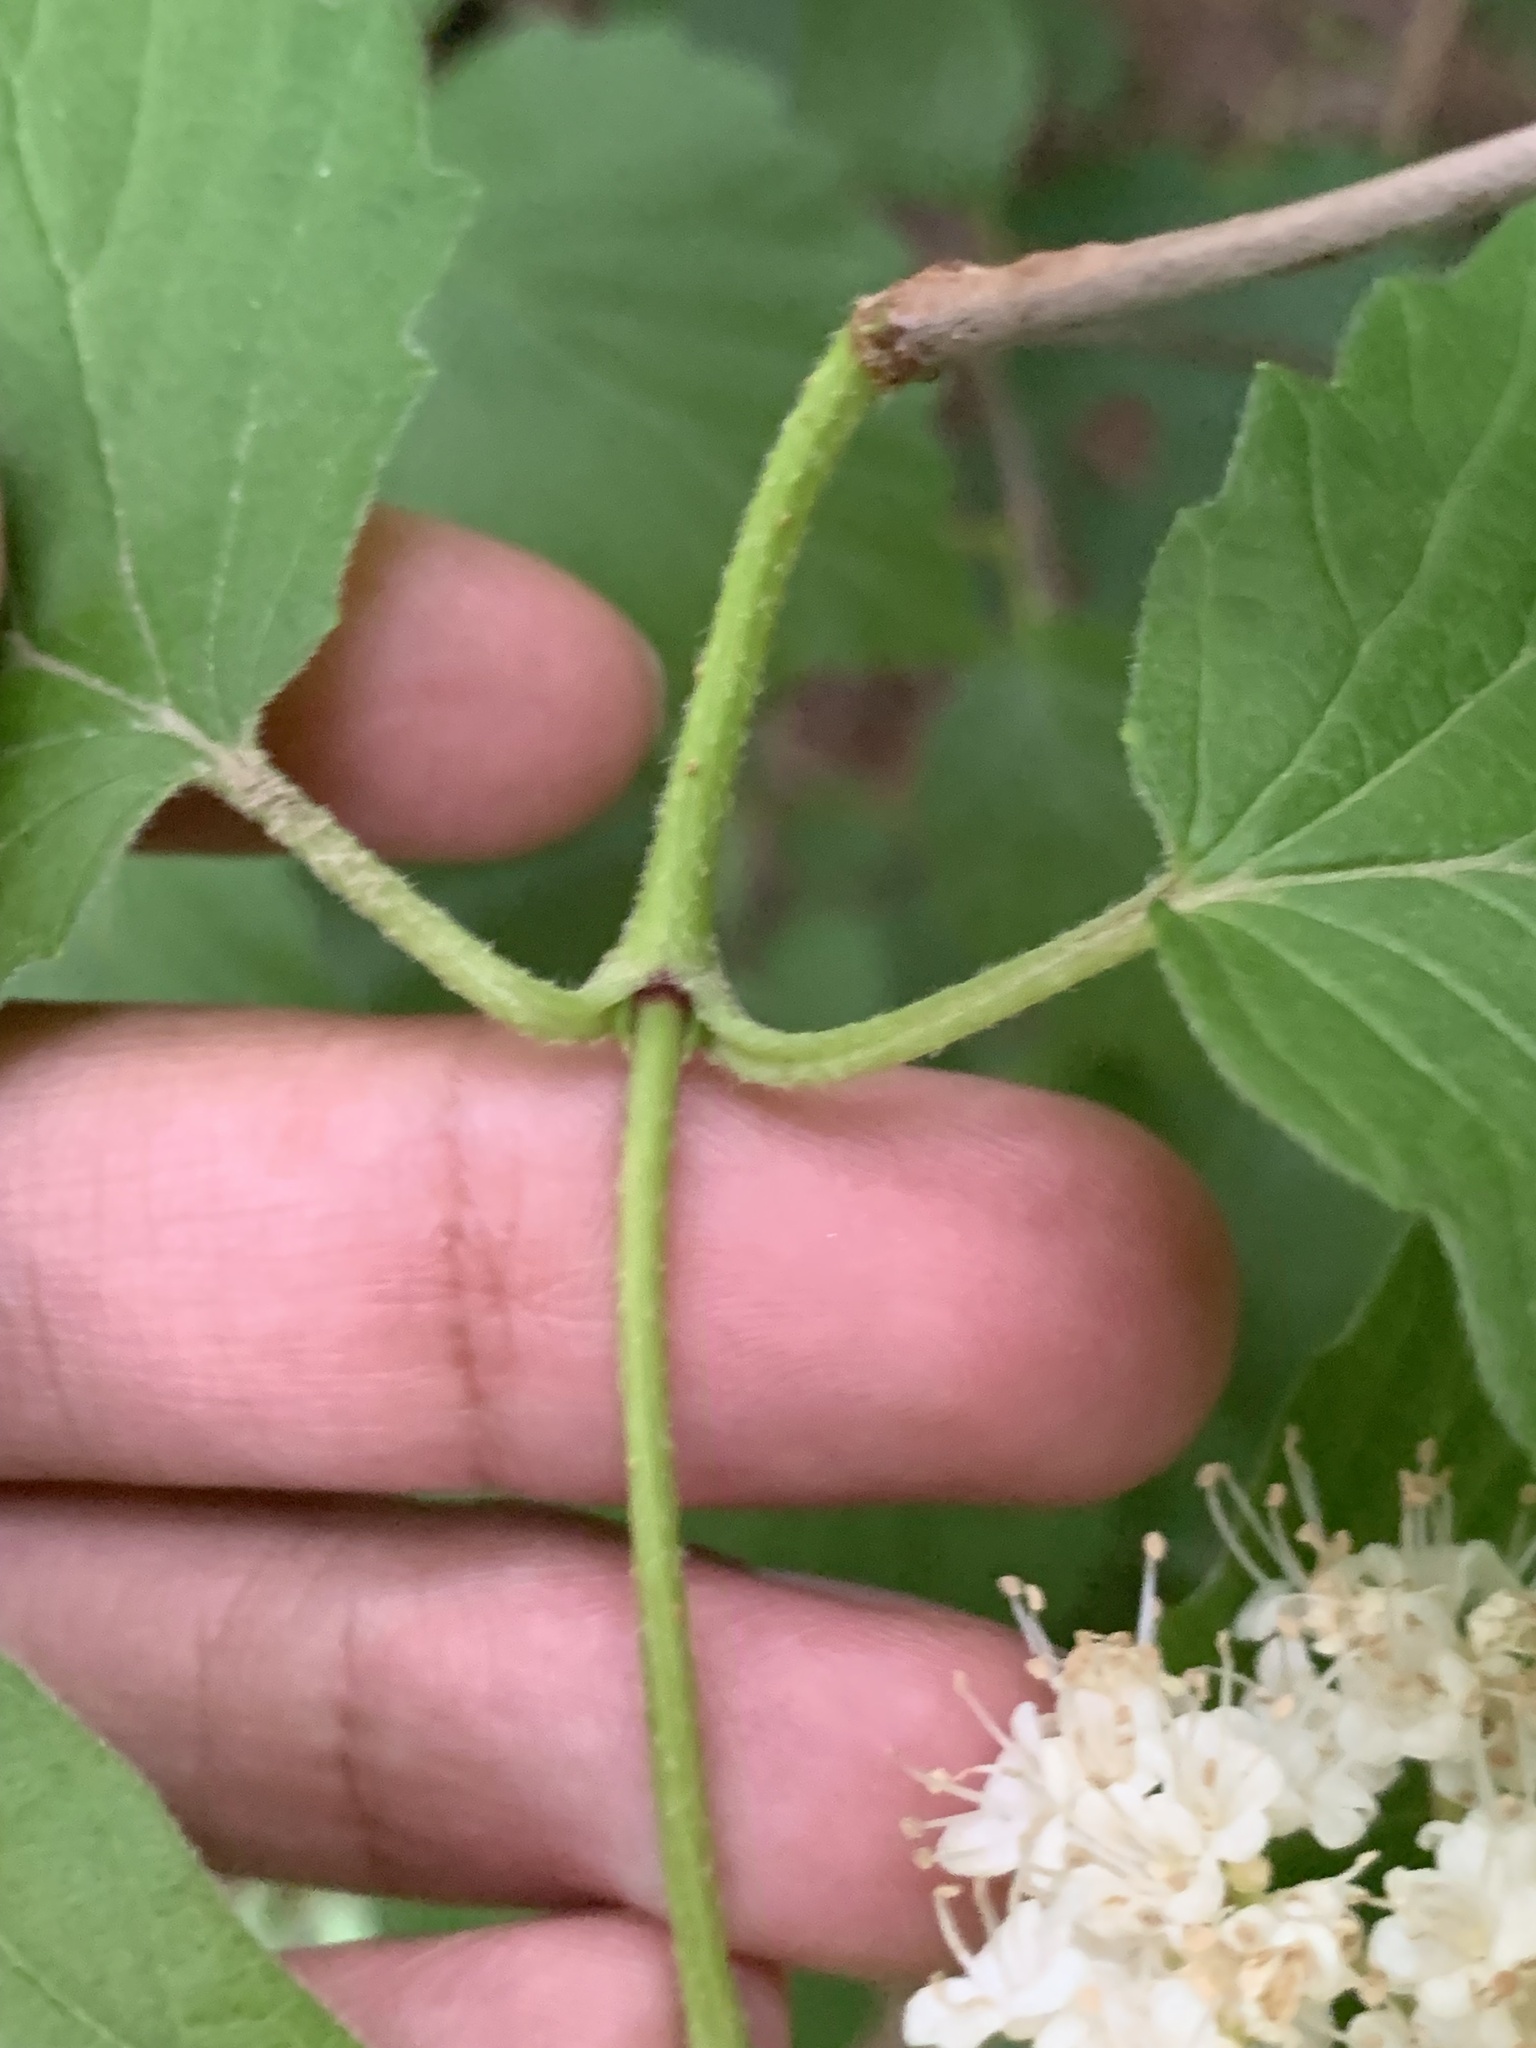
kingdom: Plantae
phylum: Tracheophyta
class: Magnoliopsida
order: Dipsacales
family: Viburnaceae
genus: Viburnum
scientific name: Viburnum dentatum
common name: Arrow-wood
